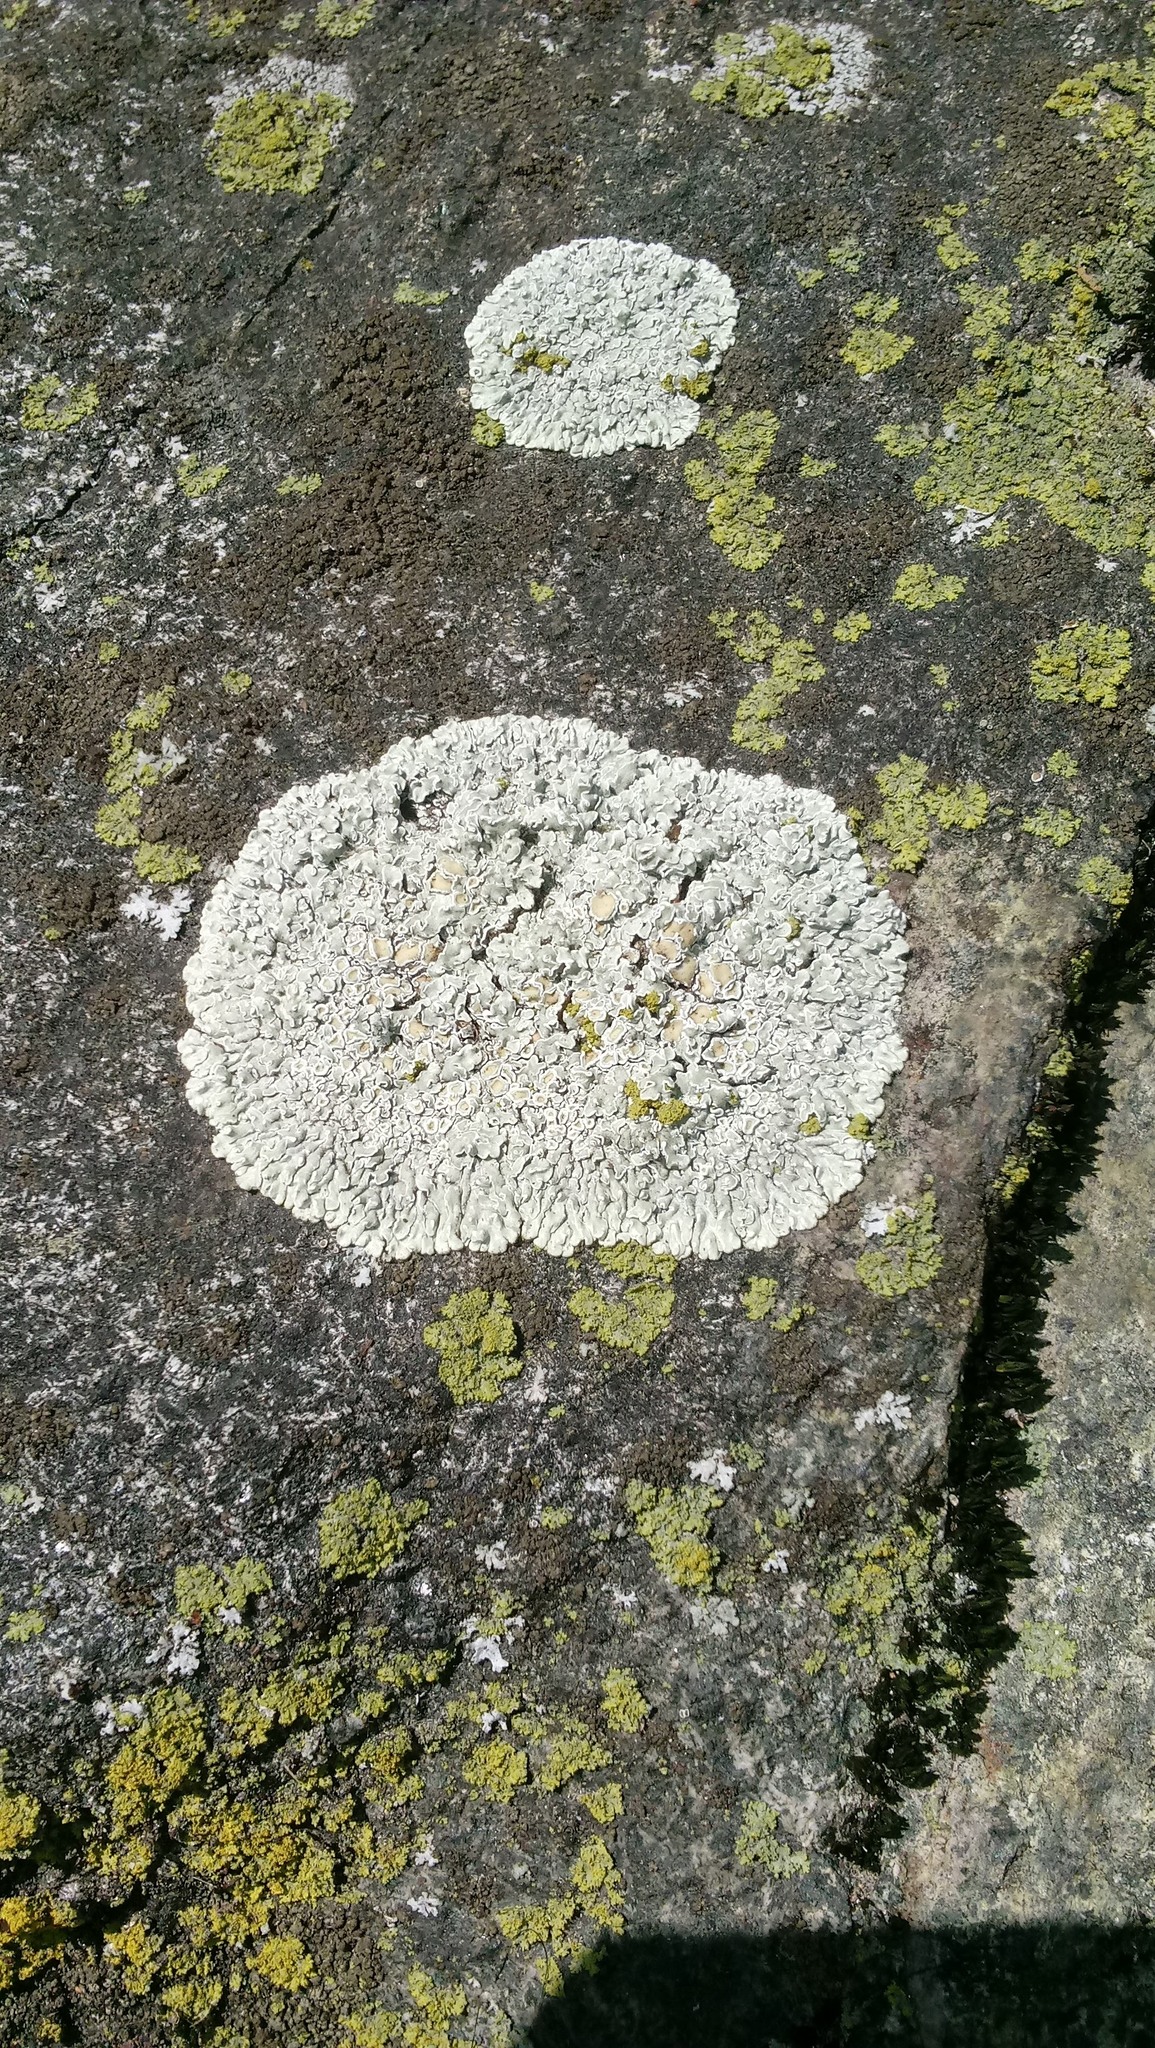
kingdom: Fungi
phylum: Ascomycota
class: Lecanoromycetes
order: Lecanorales
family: Lecanoraceae
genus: Protoparmeliopsis
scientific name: Protoparmeliopsis muralis
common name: Stonewall rim lichen
